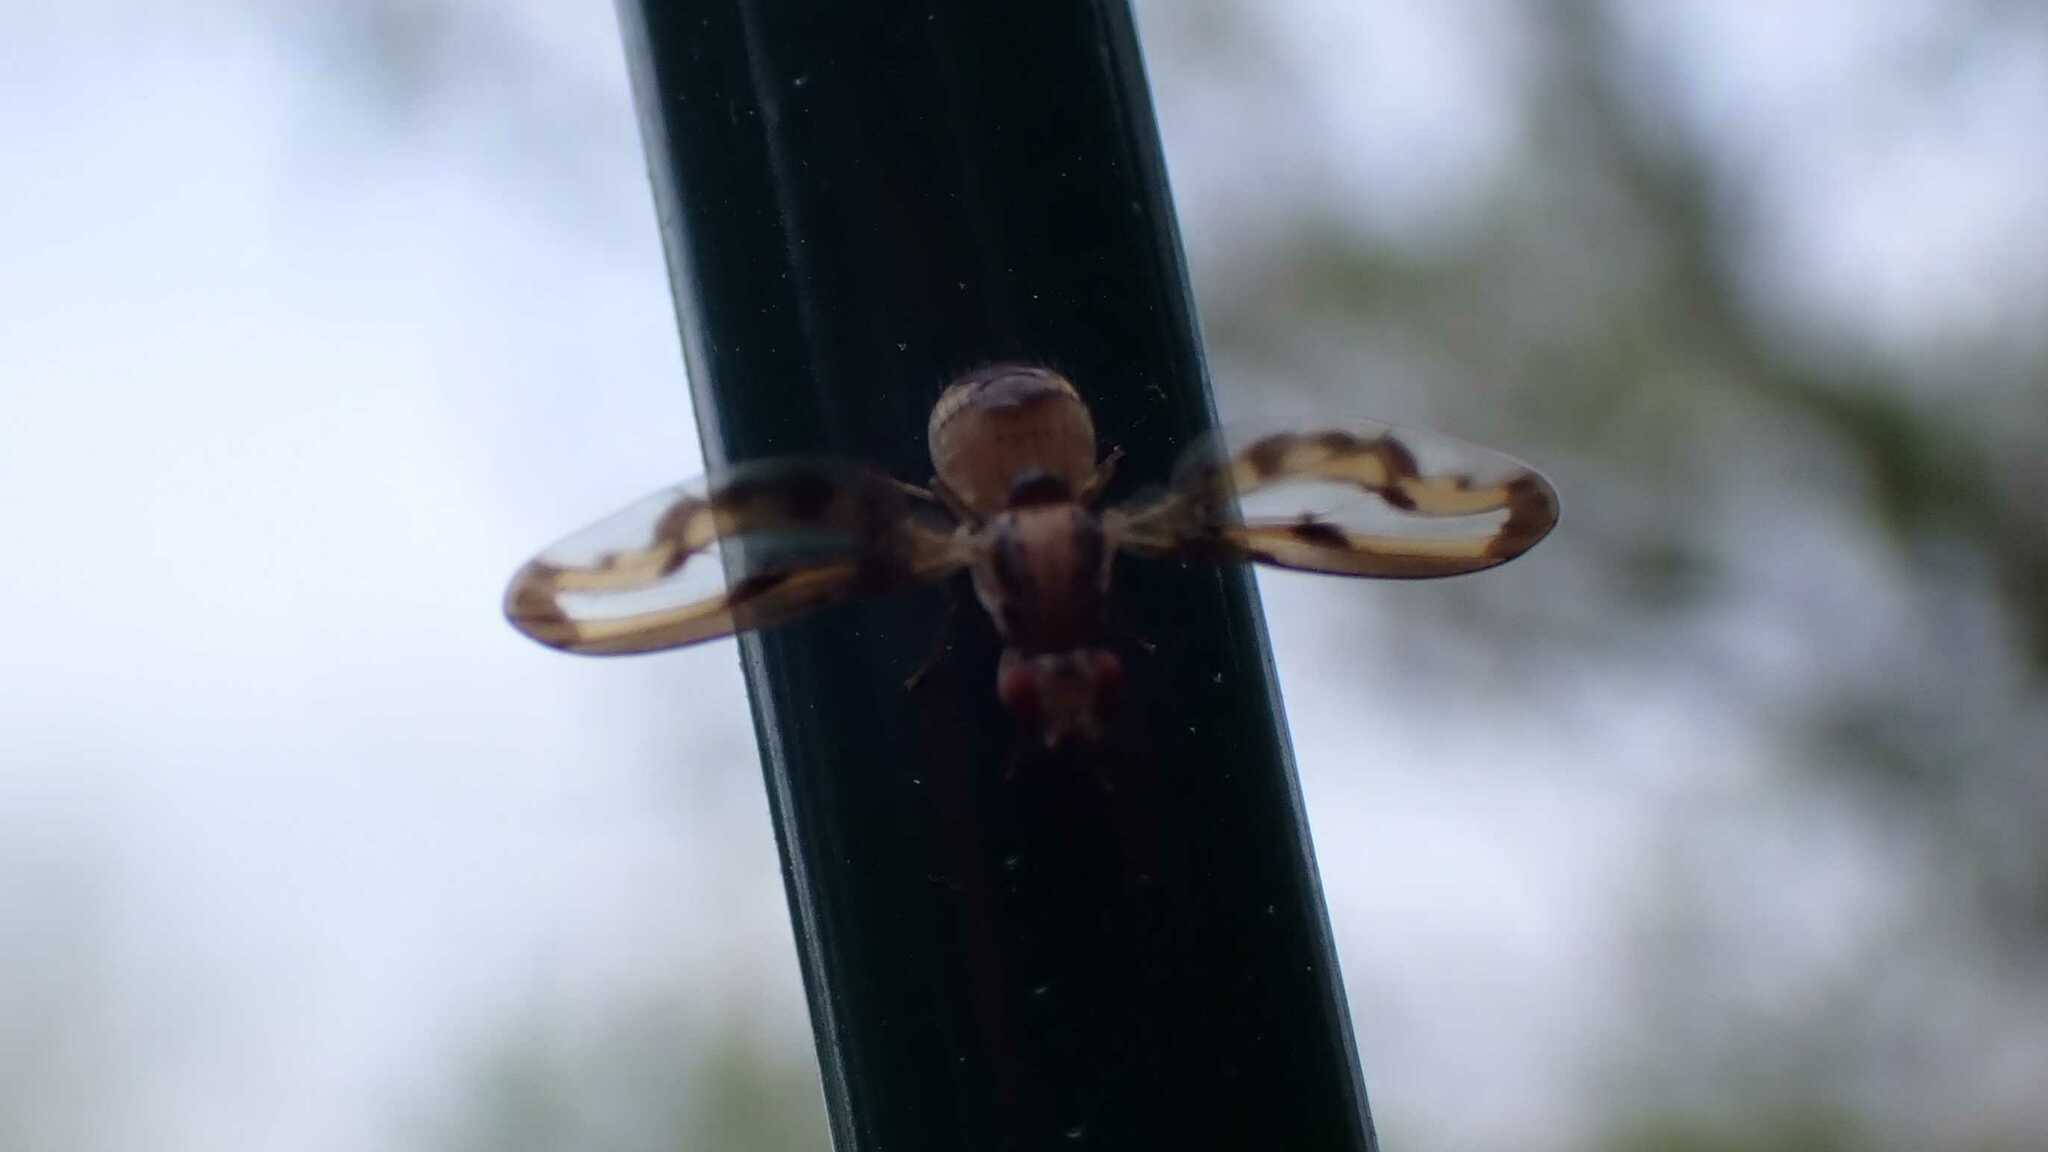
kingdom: Animalia
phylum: Arthropoda
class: Insecta
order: Diptera
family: Pallopteridae
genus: Toxonevra
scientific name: Toxonevra muliebris
